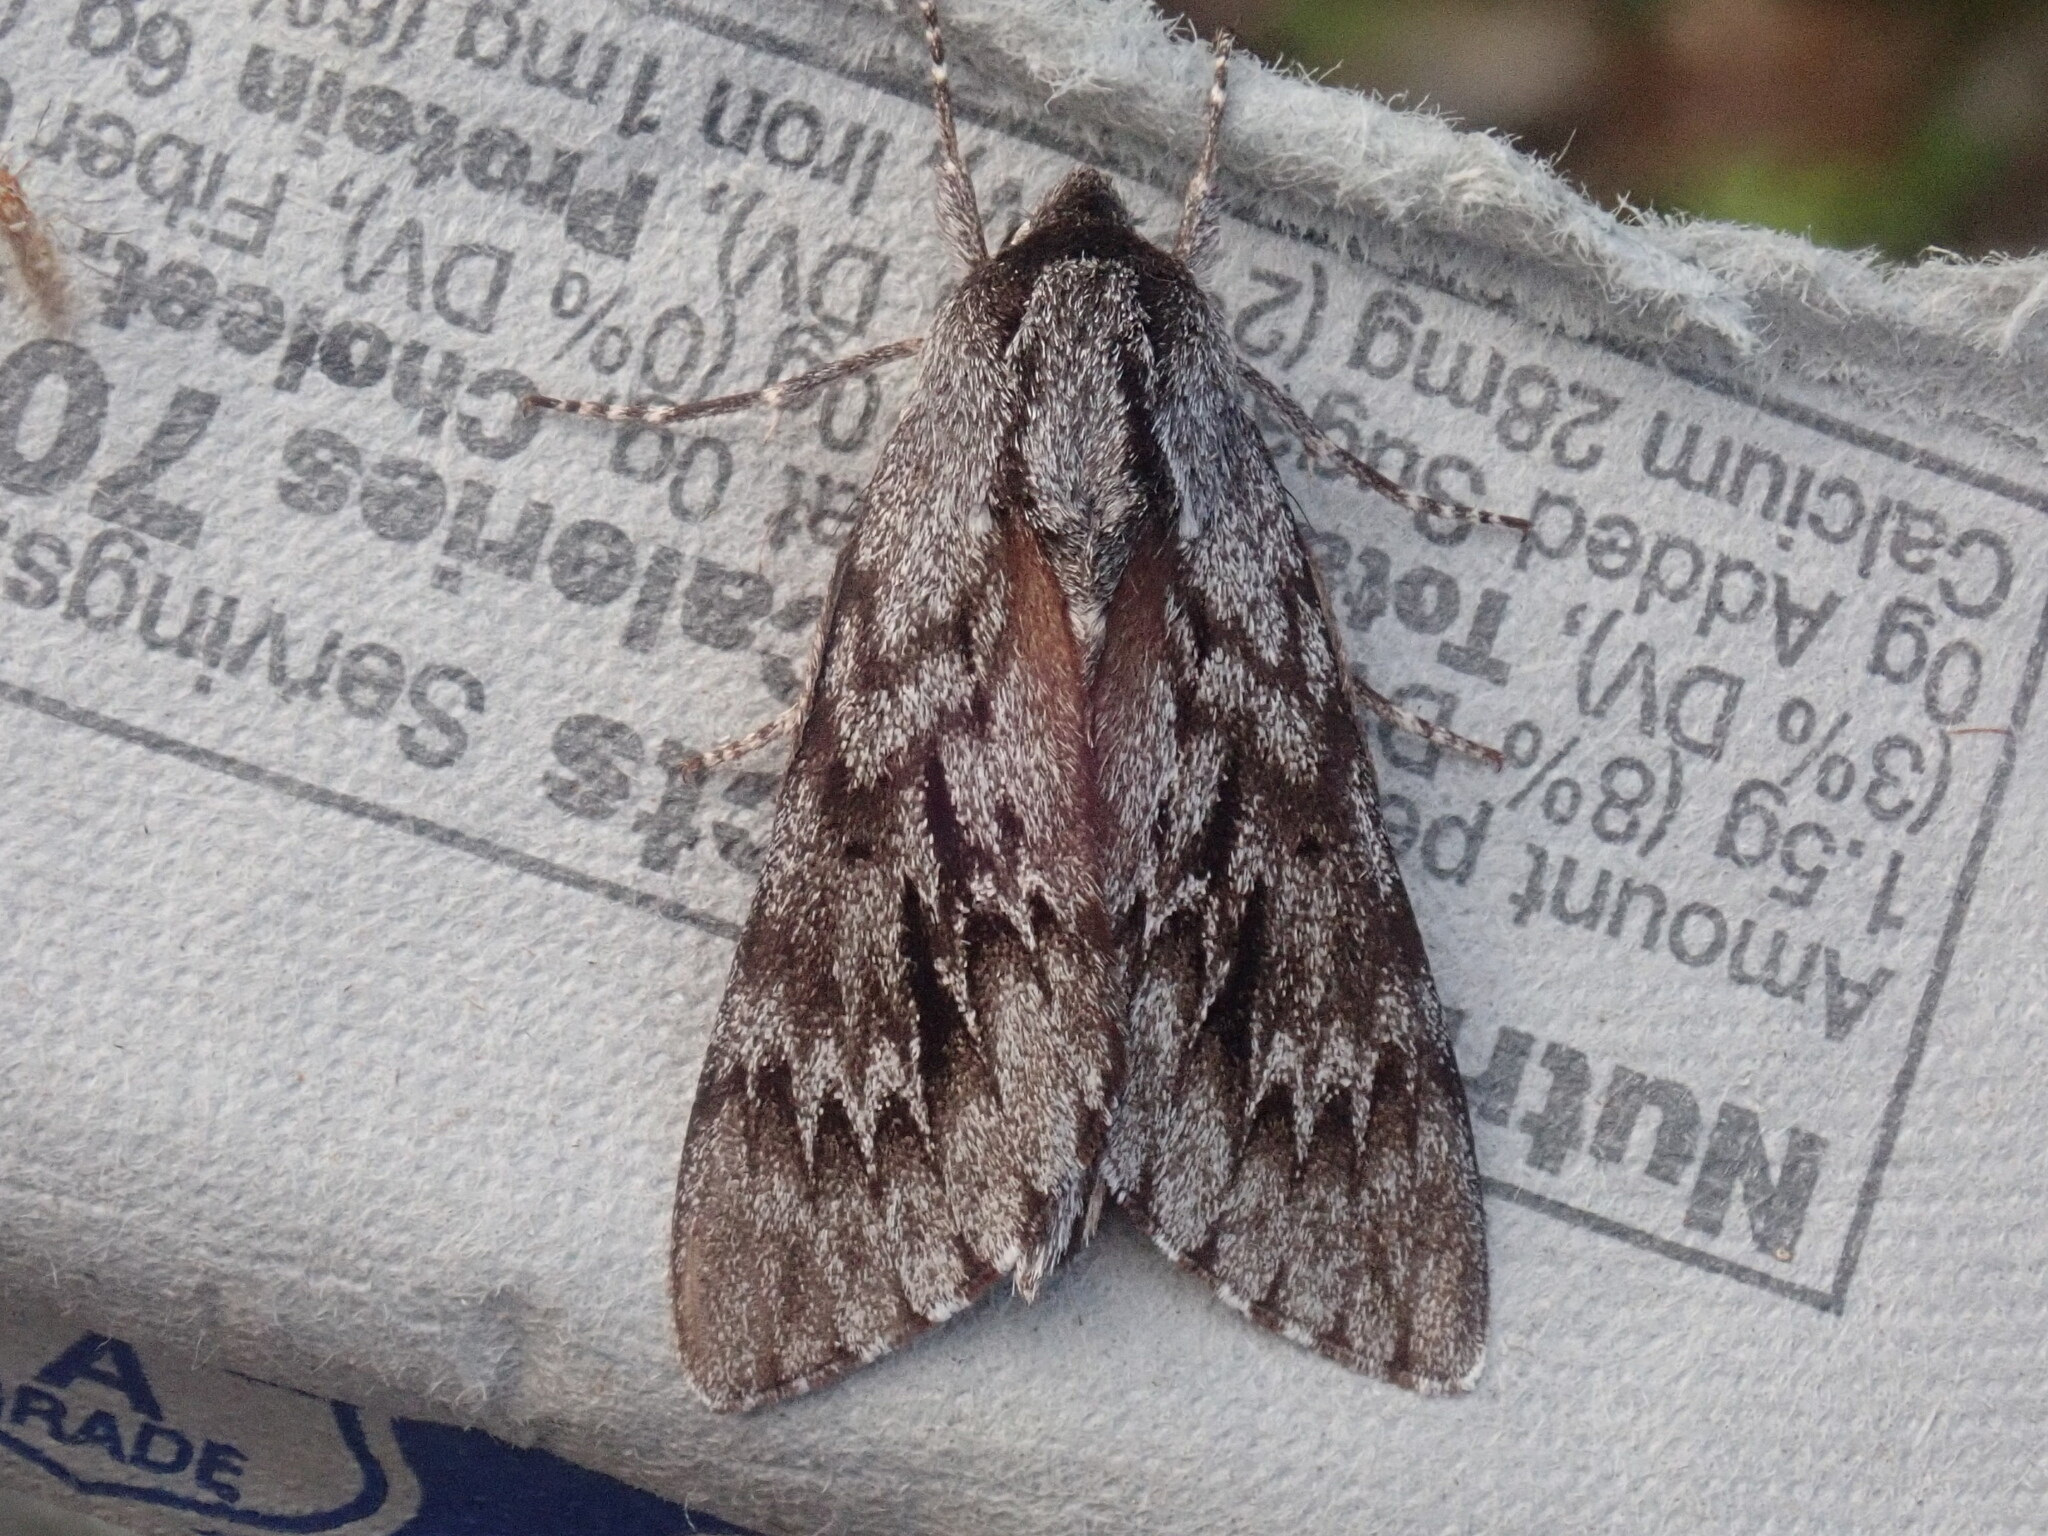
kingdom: Animalia
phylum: Arthropoda
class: Insecta
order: Lepidoptera
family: Sphingidae
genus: Lapara
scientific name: Lapara bombycoides
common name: Northern pine sphinx
